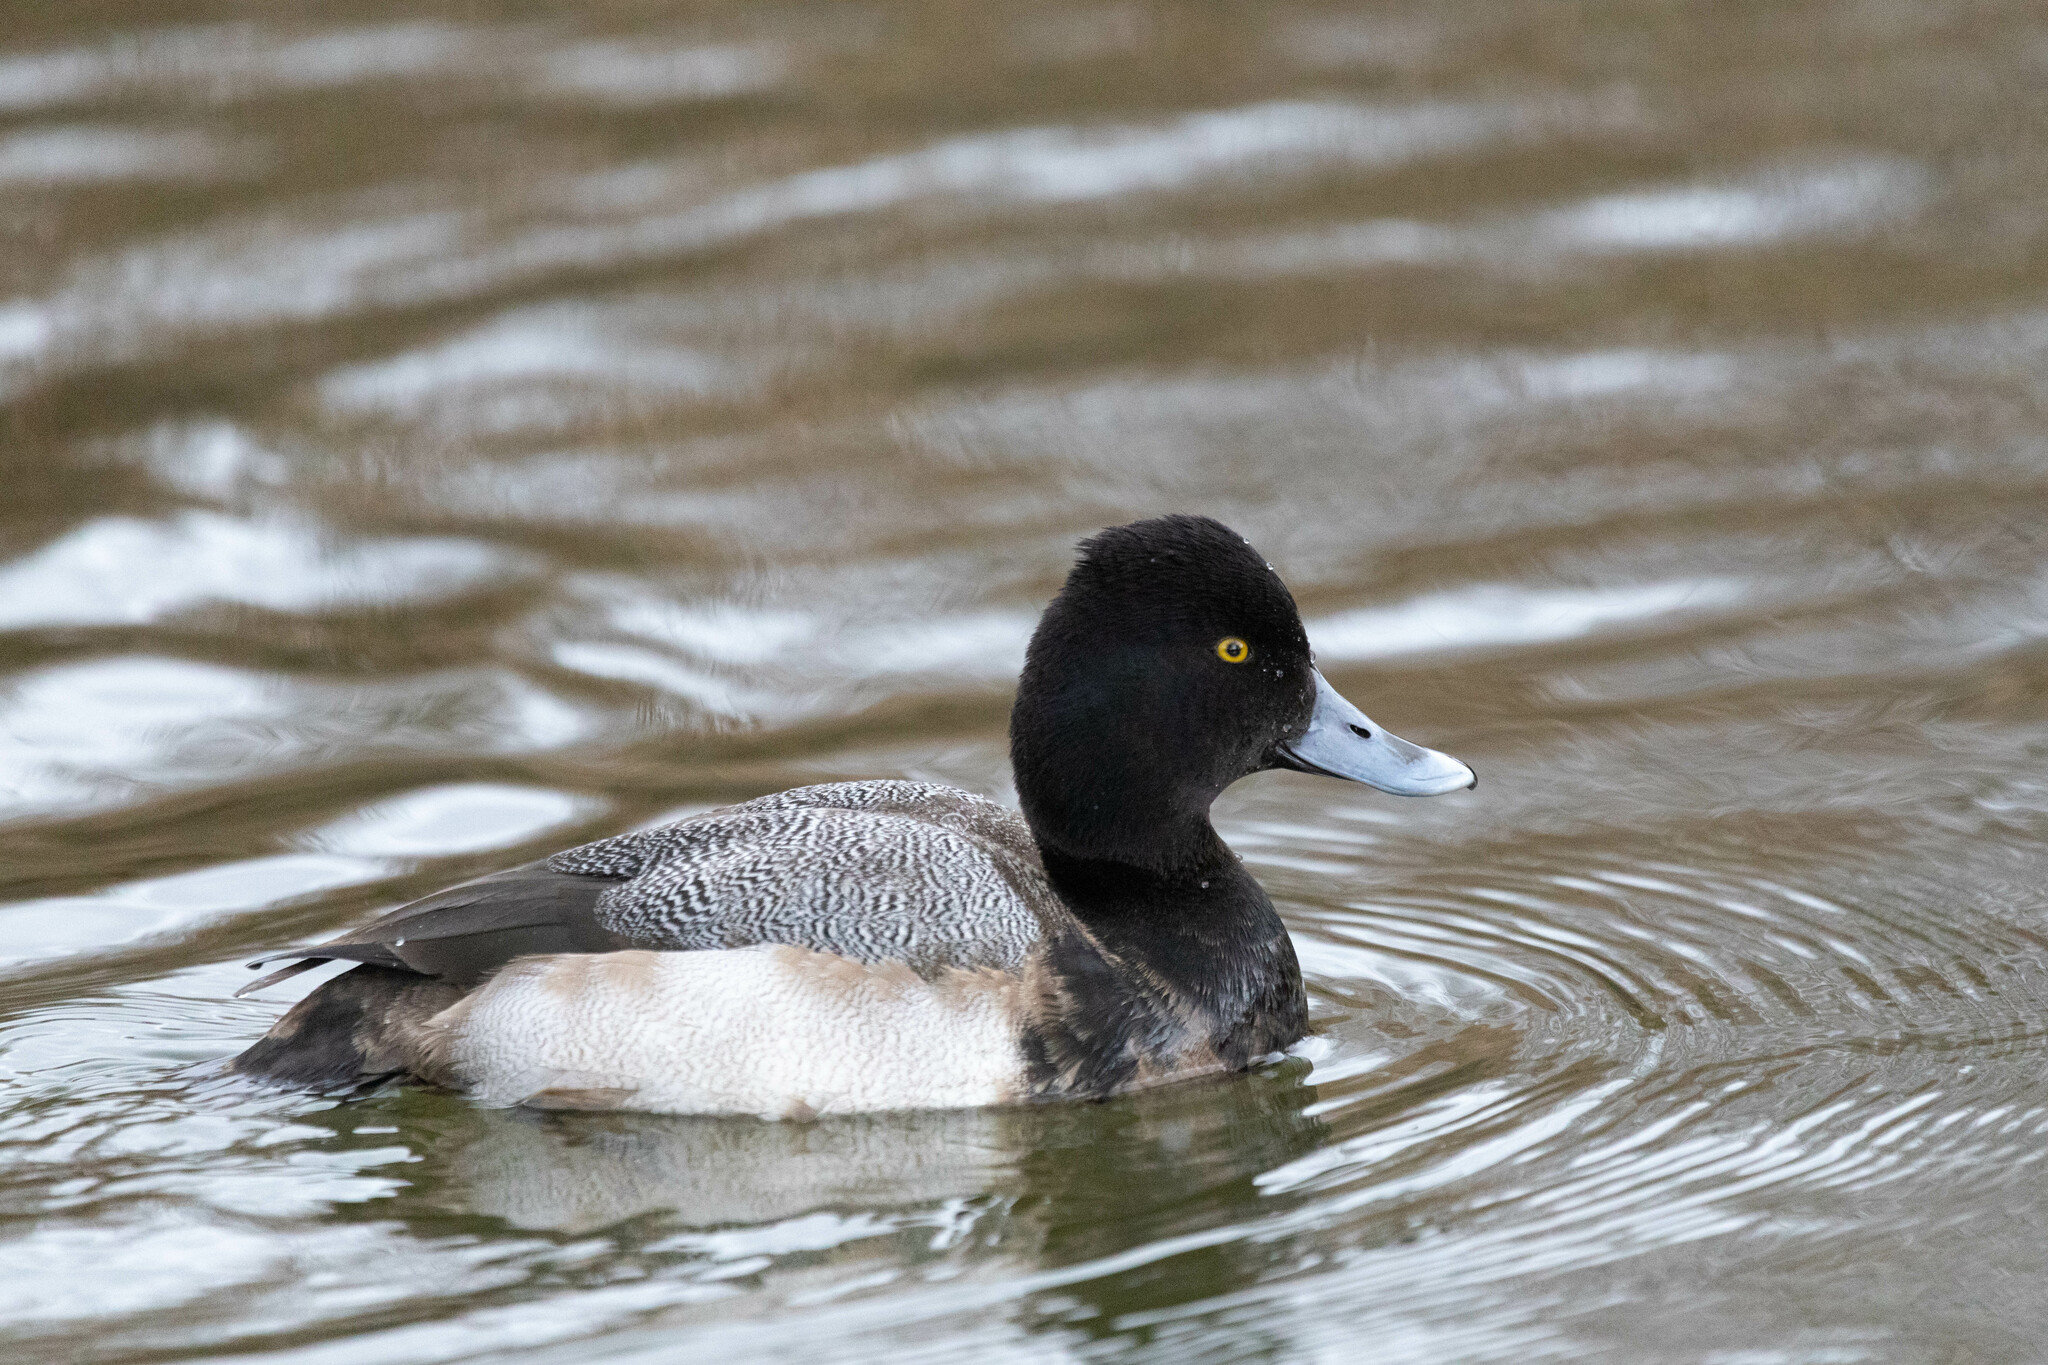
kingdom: Animalia
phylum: Chordata
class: Aves
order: Anseriformes
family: Anatidae
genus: Aythya
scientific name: Aythya affinis
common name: Lesser scaup
